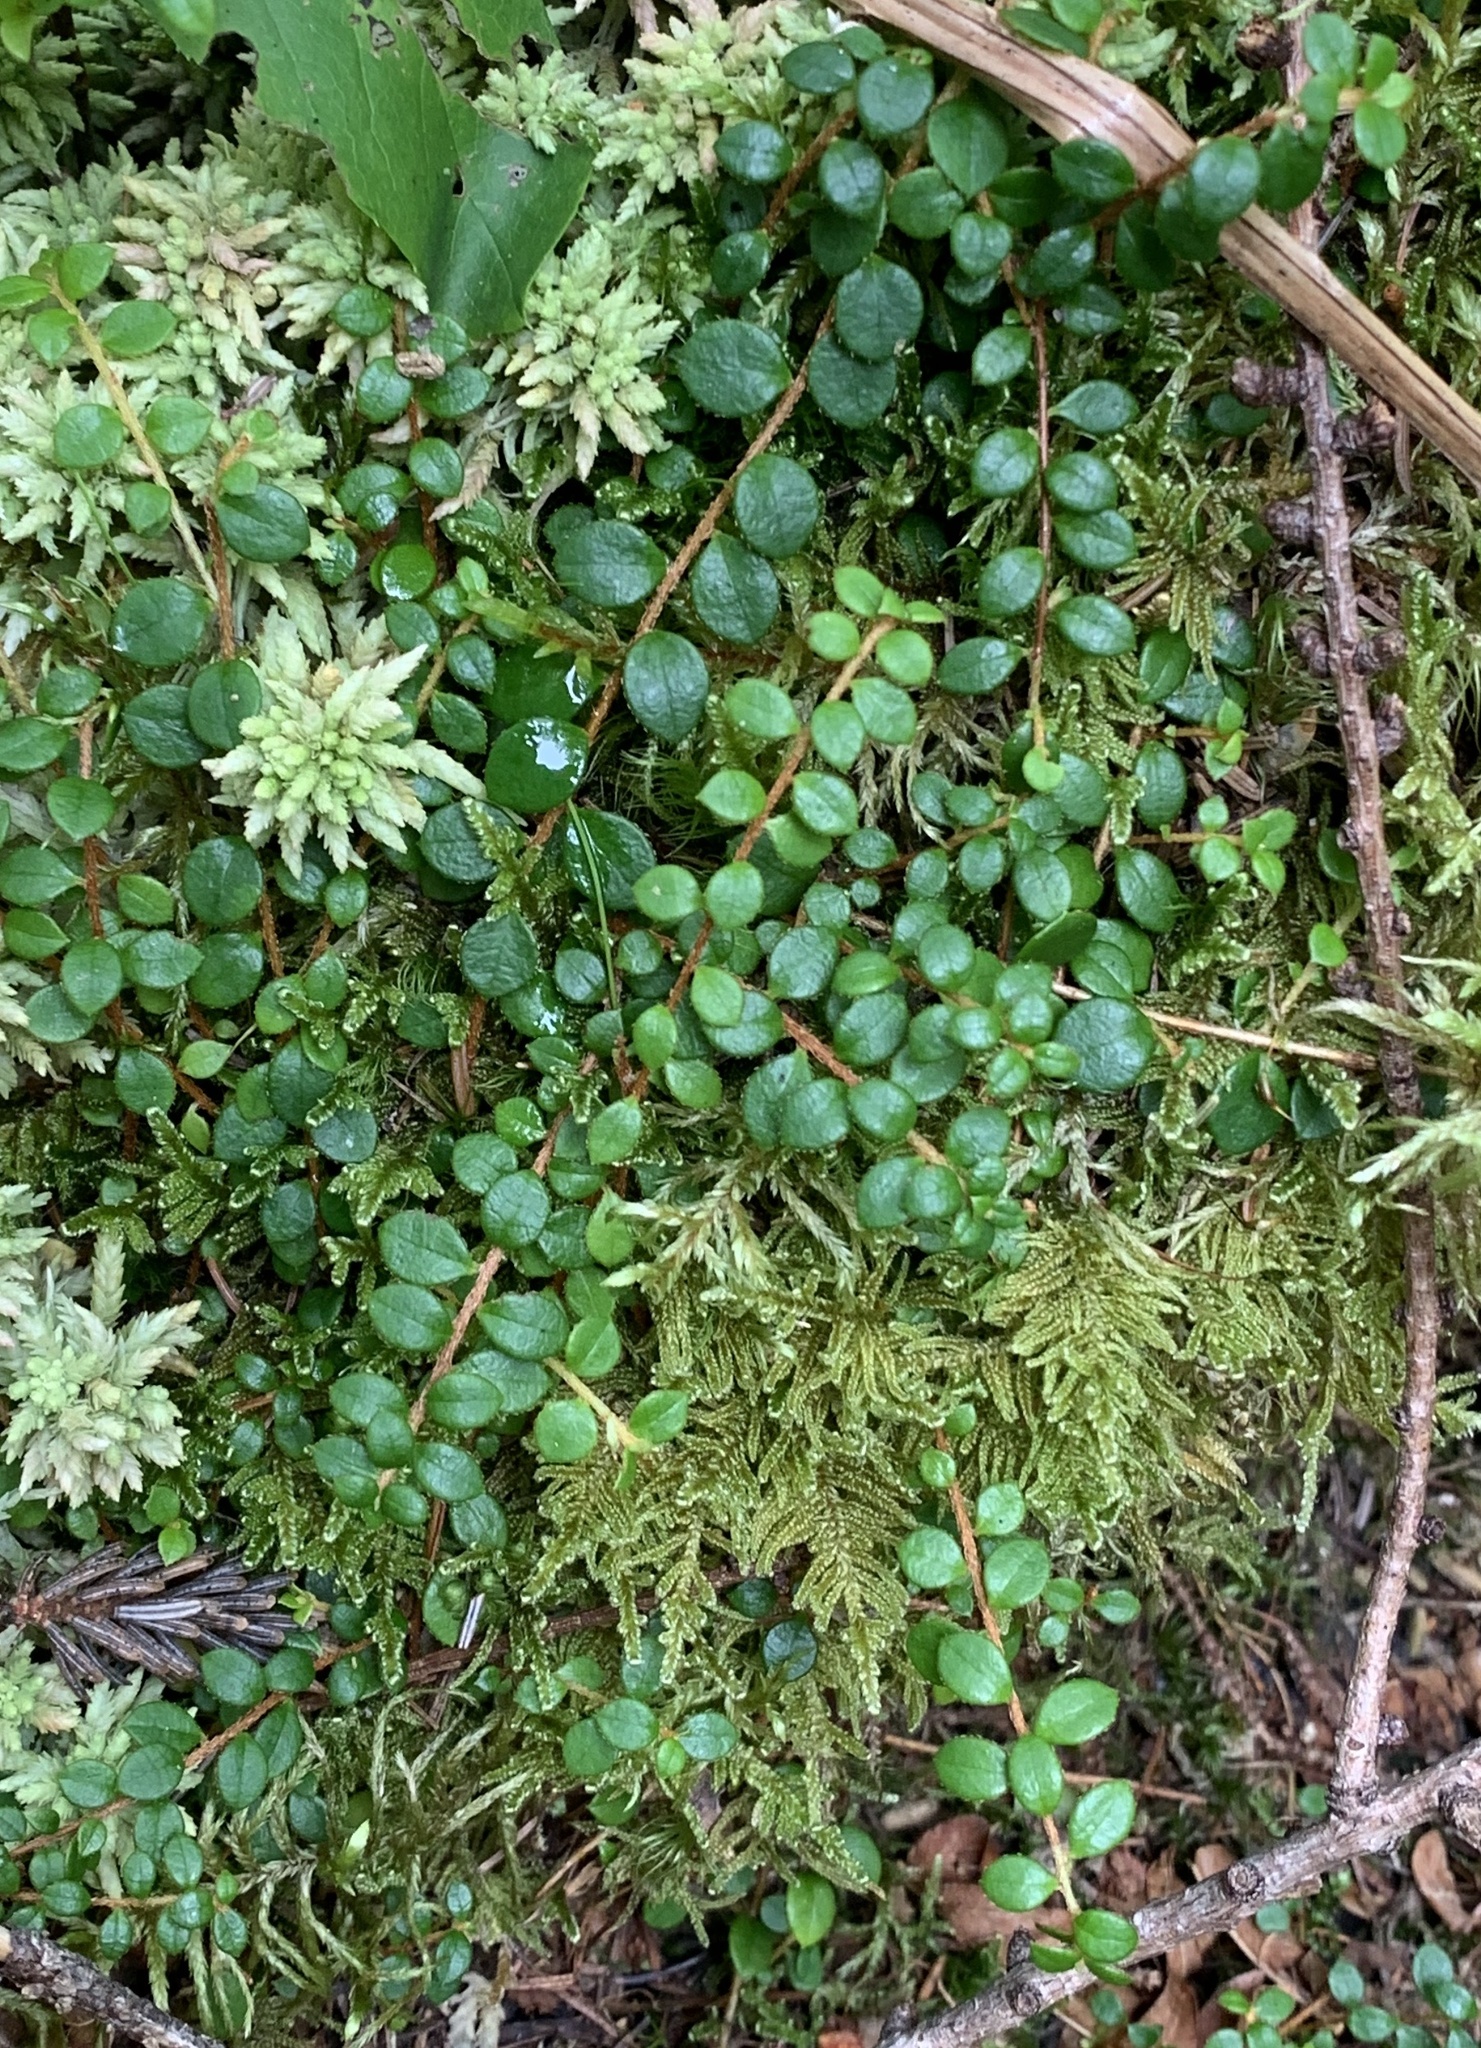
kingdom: Plantae
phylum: Tracheophyta
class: Magnoliopsida
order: Ericales
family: Ericaceae
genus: Gaultheria
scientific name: Gaultheria hispidula
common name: Cancer wintergreen
